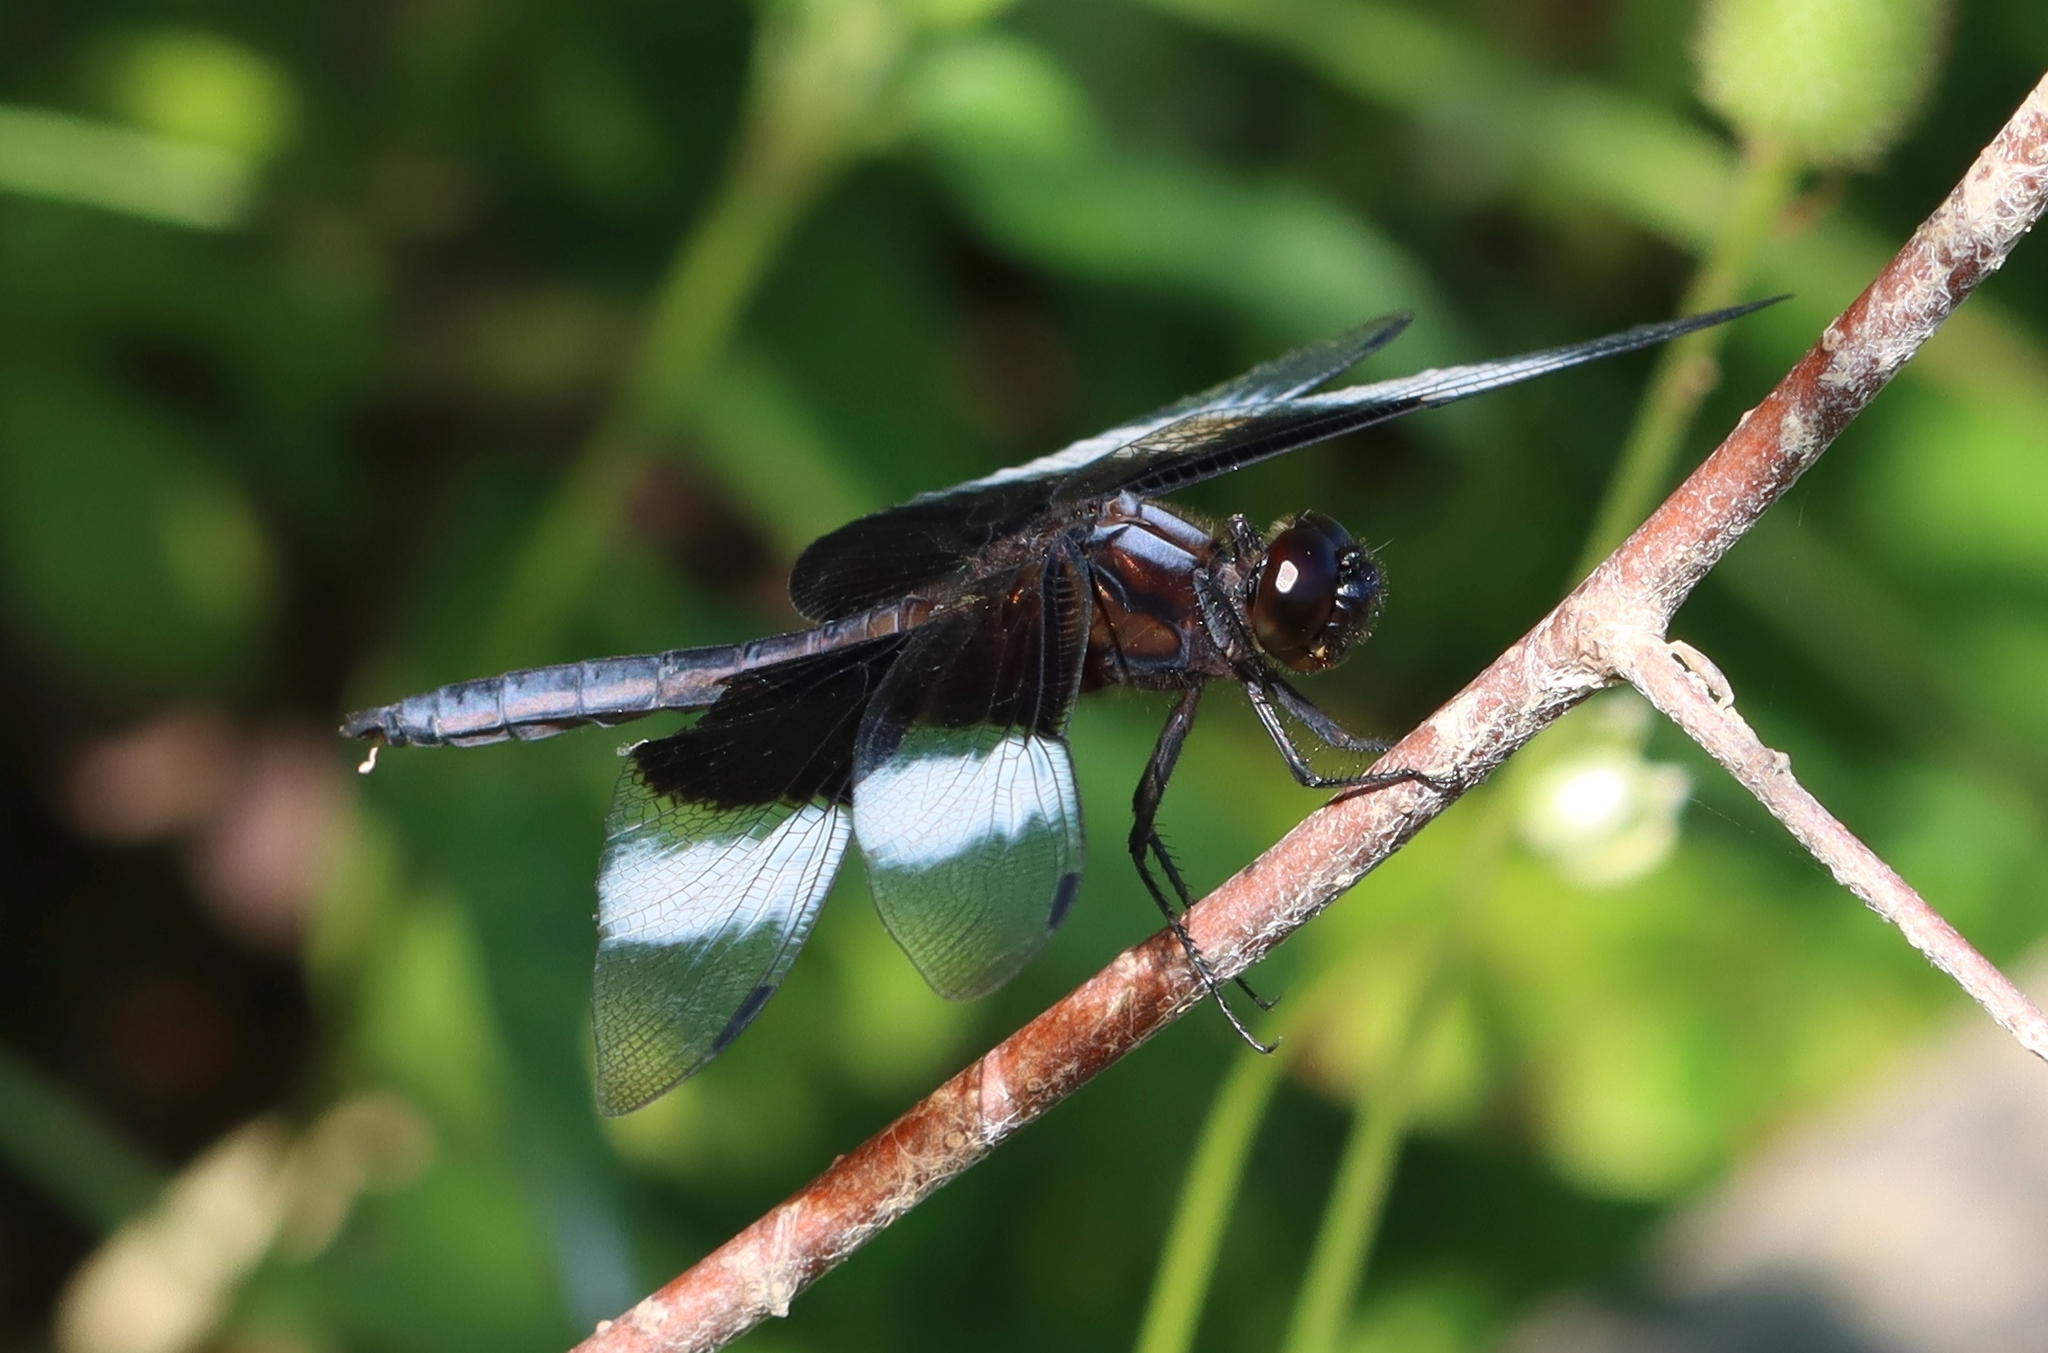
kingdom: Animalia
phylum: Arthropoda
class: Insecta
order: Odonata
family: Libellulidae
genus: Libellula
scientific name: Libellula luctuosa
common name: Widow skimmer
